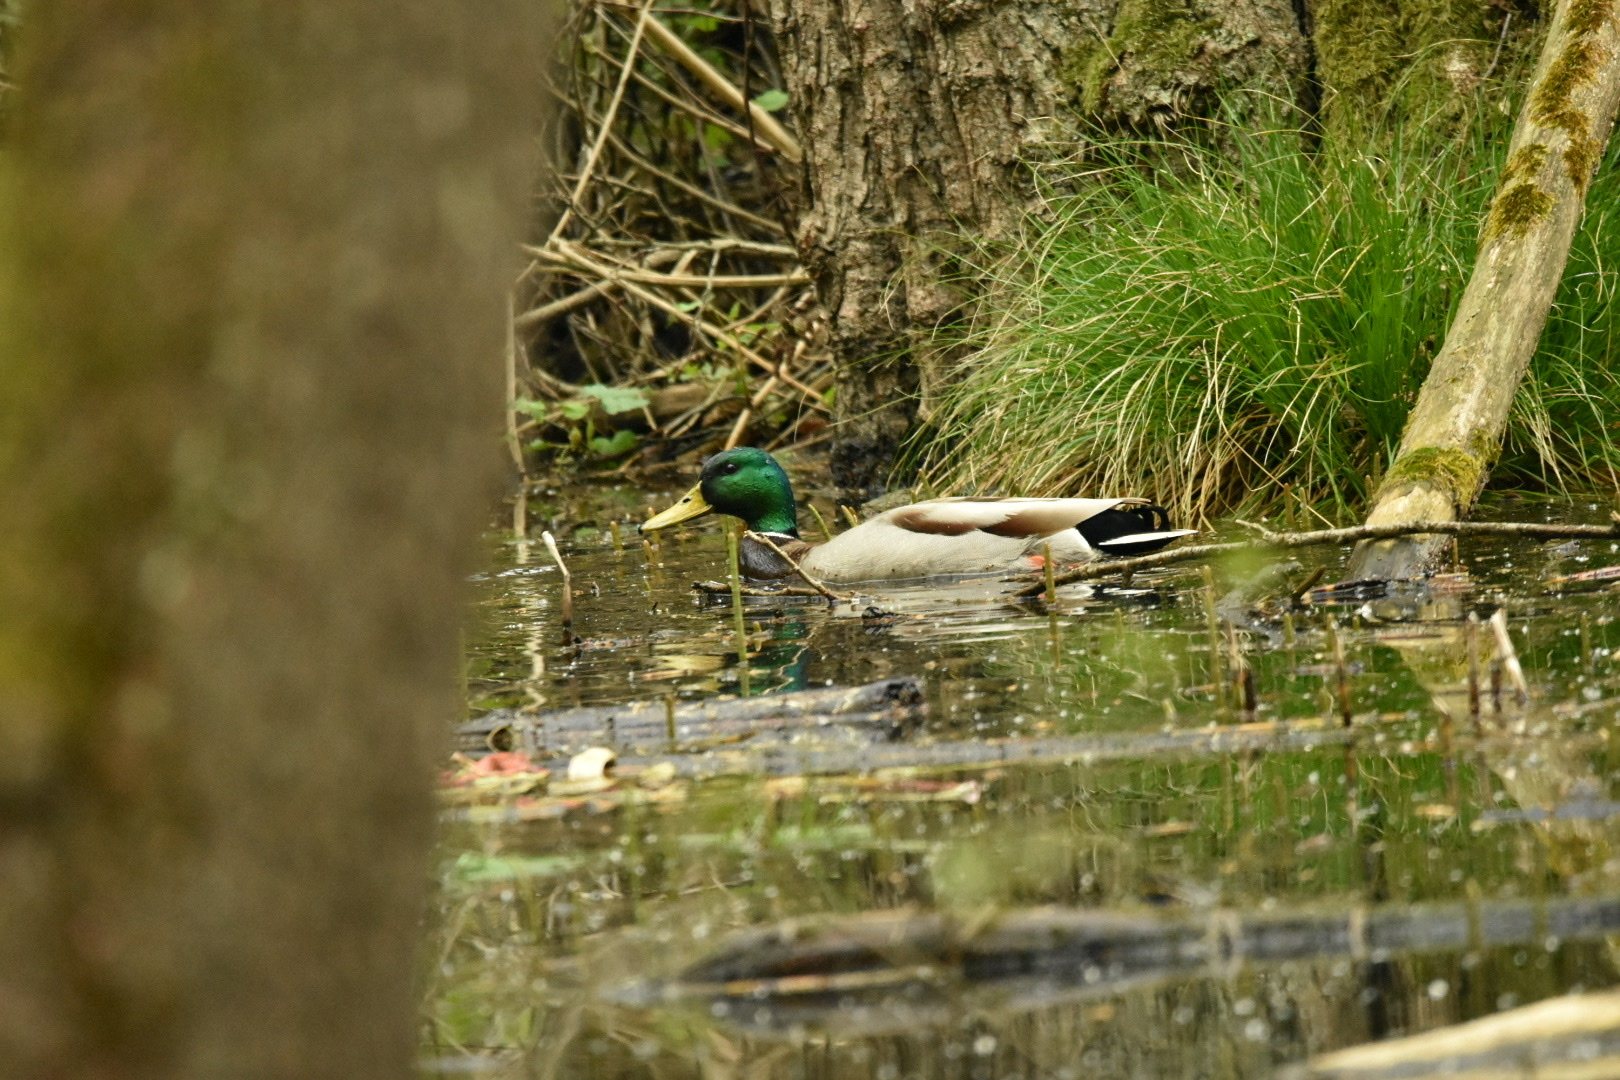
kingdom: Animalia
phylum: Chordata
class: Aves
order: Anseriformes
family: Anatidae
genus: Anas
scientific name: Anas platyrhynchos
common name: Mallard
